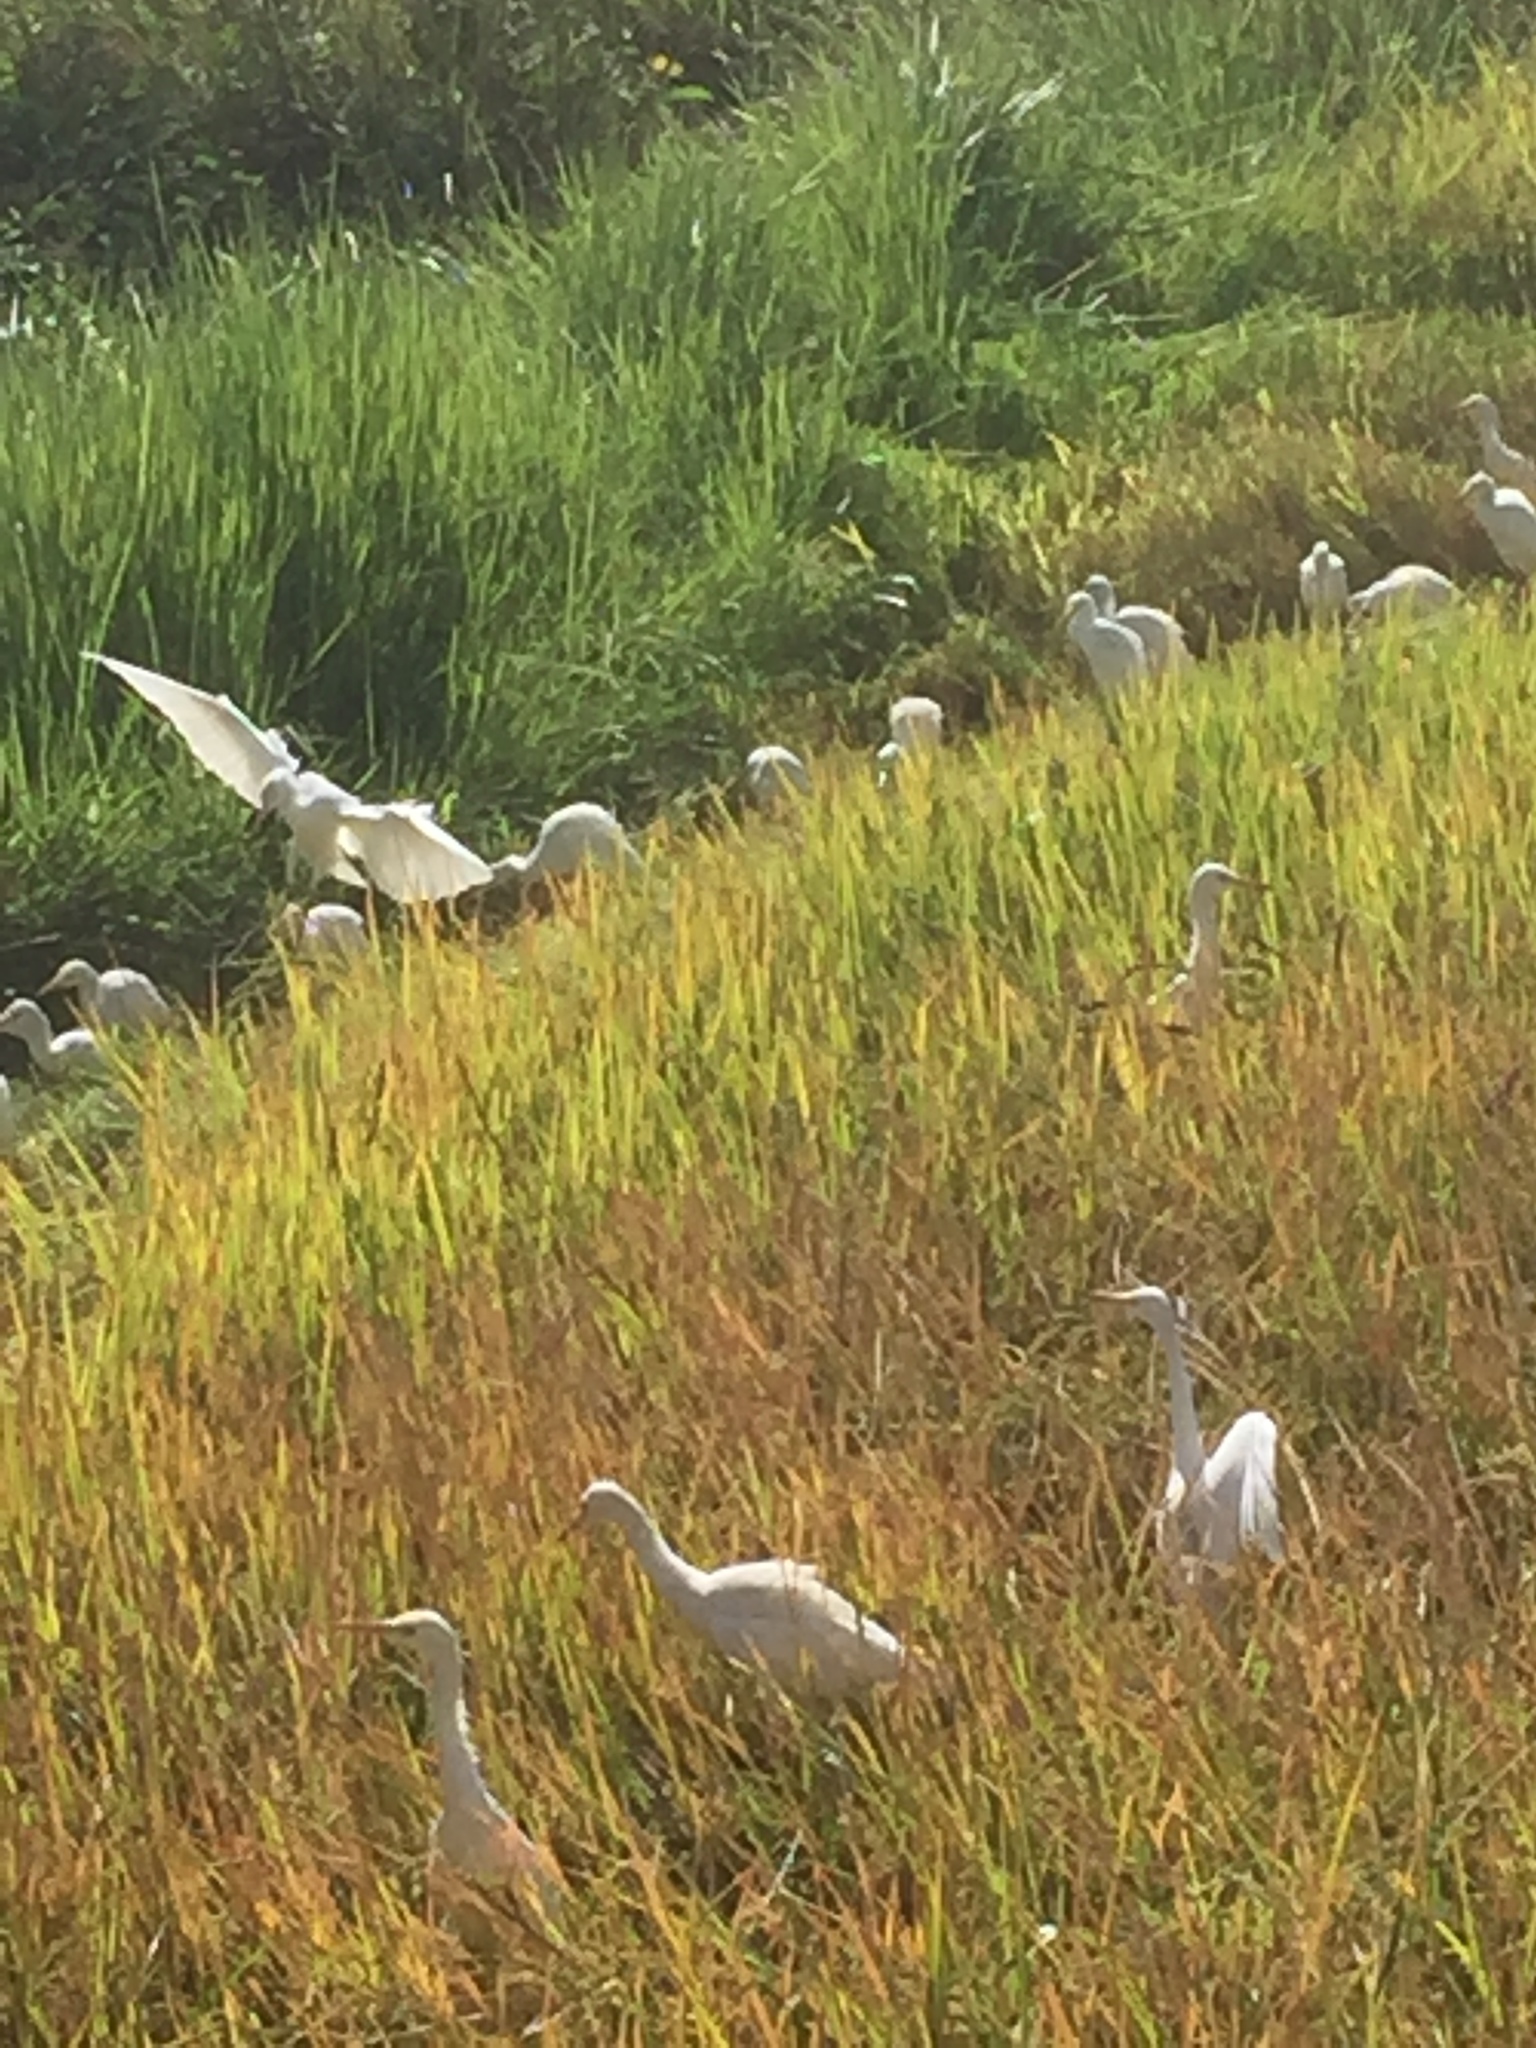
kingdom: Animalia
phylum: Chordata
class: Aves
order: Pelecaniformes
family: Ardeidae
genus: Bubulcus
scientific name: Bubulcus coromandus
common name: Eastern cattle egret
